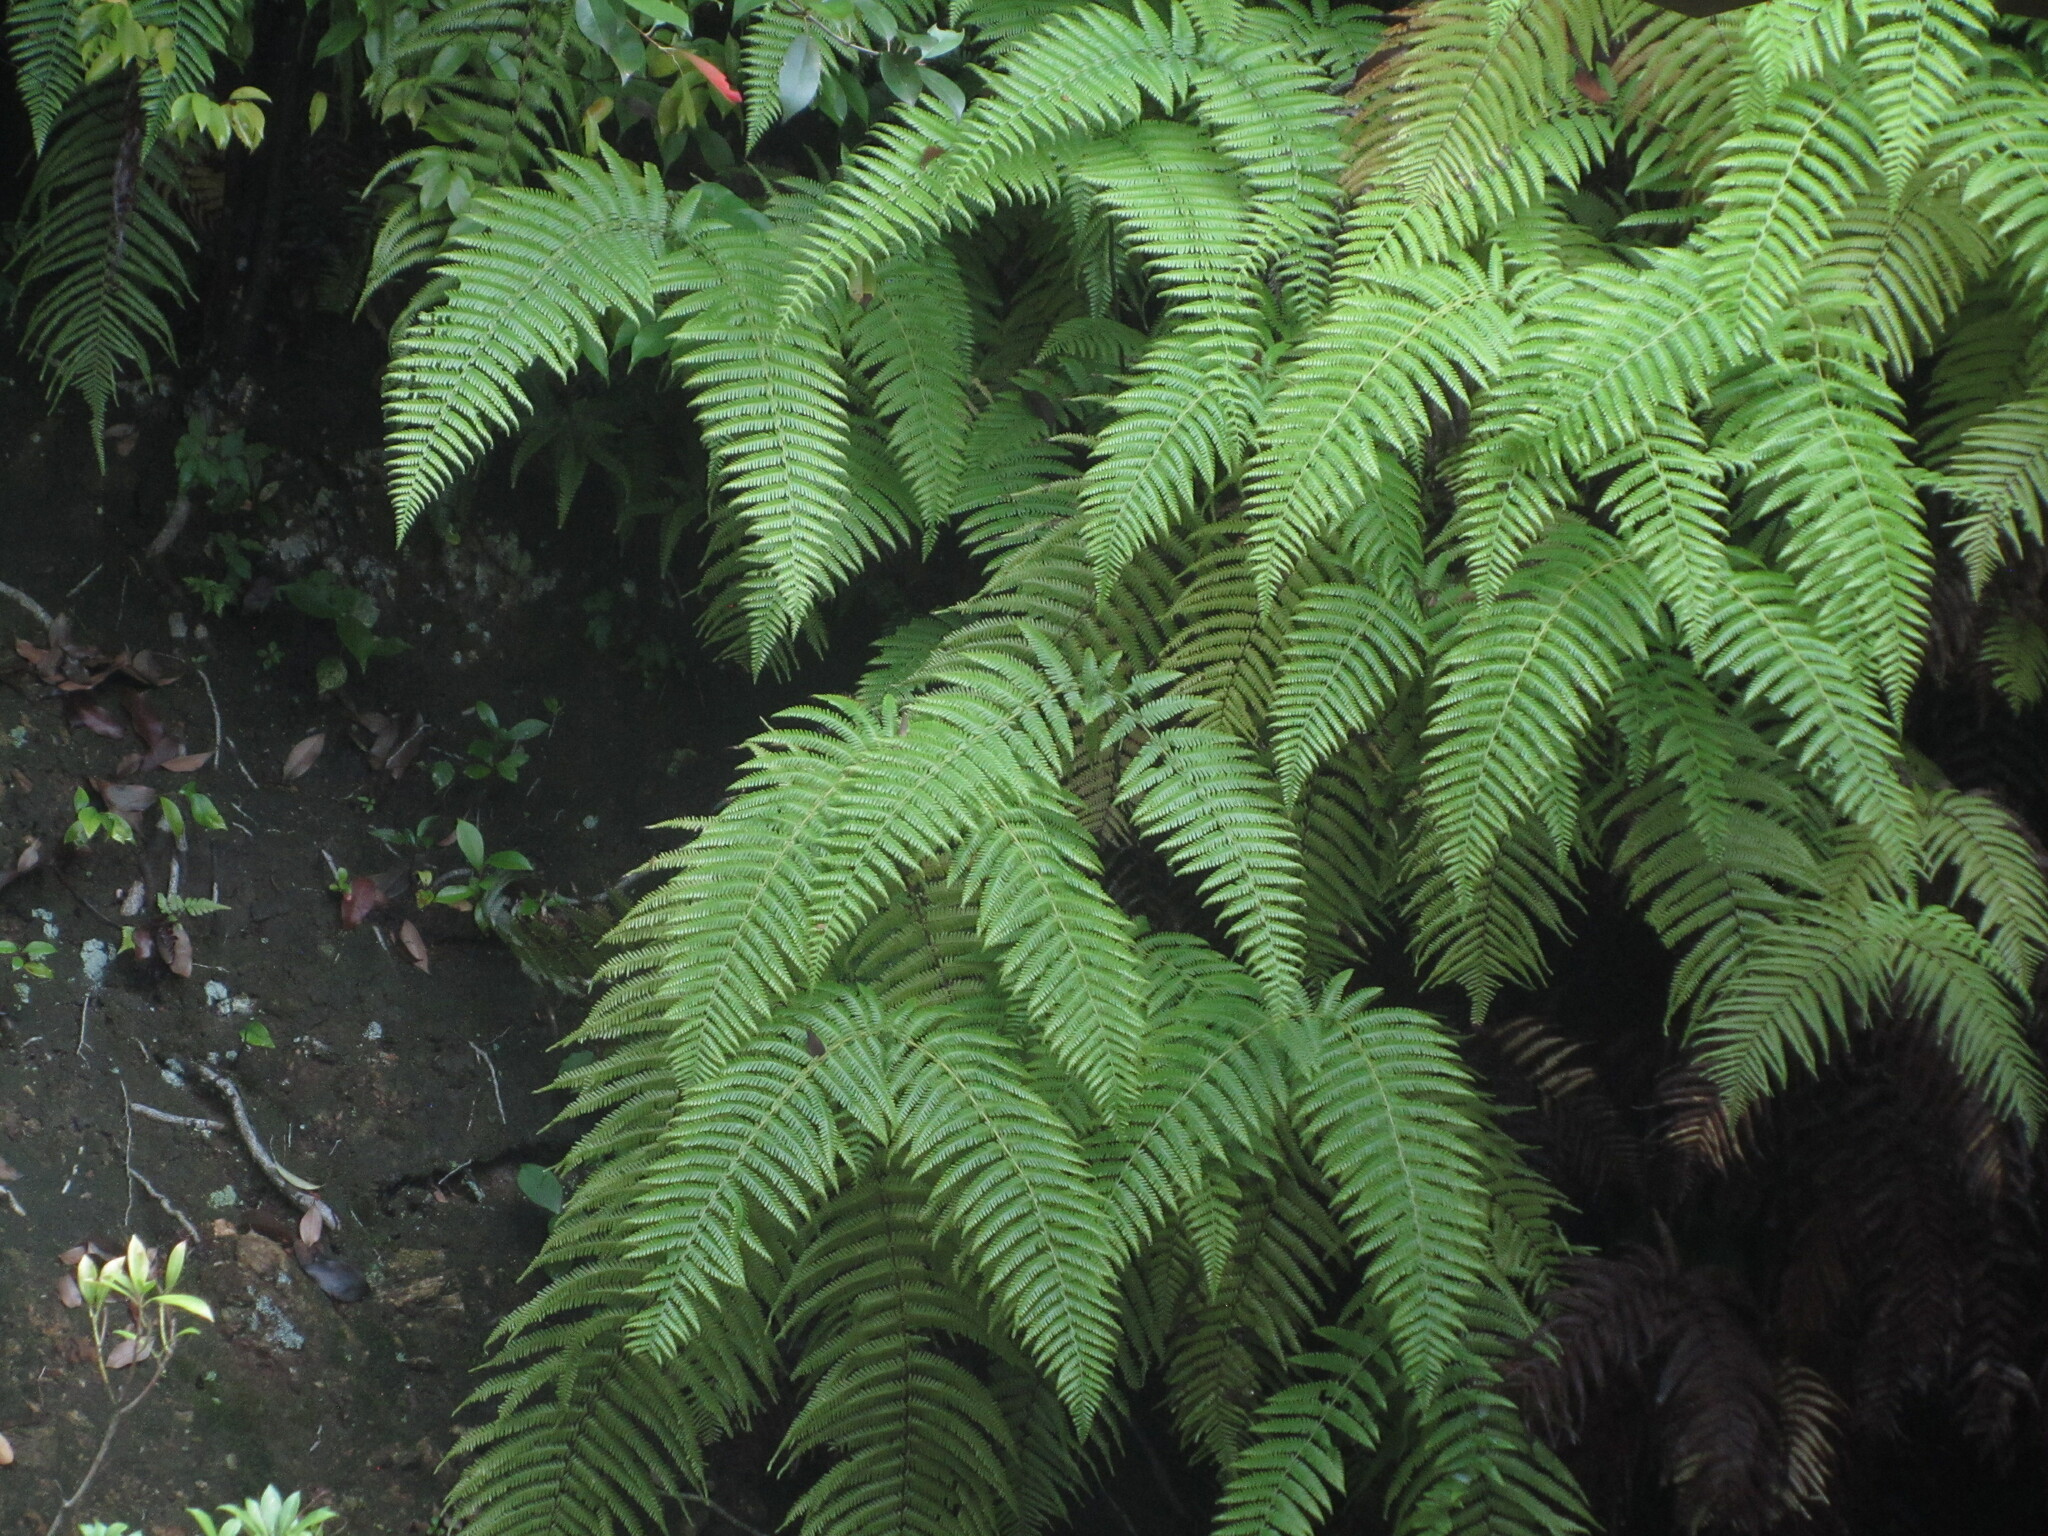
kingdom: Plantae
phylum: Tracheophyta
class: Polypodiopsida
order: Gleicheniales
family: Gleicheniaceae
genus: Diplopterygium
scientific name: Diplopterygium glaucum
